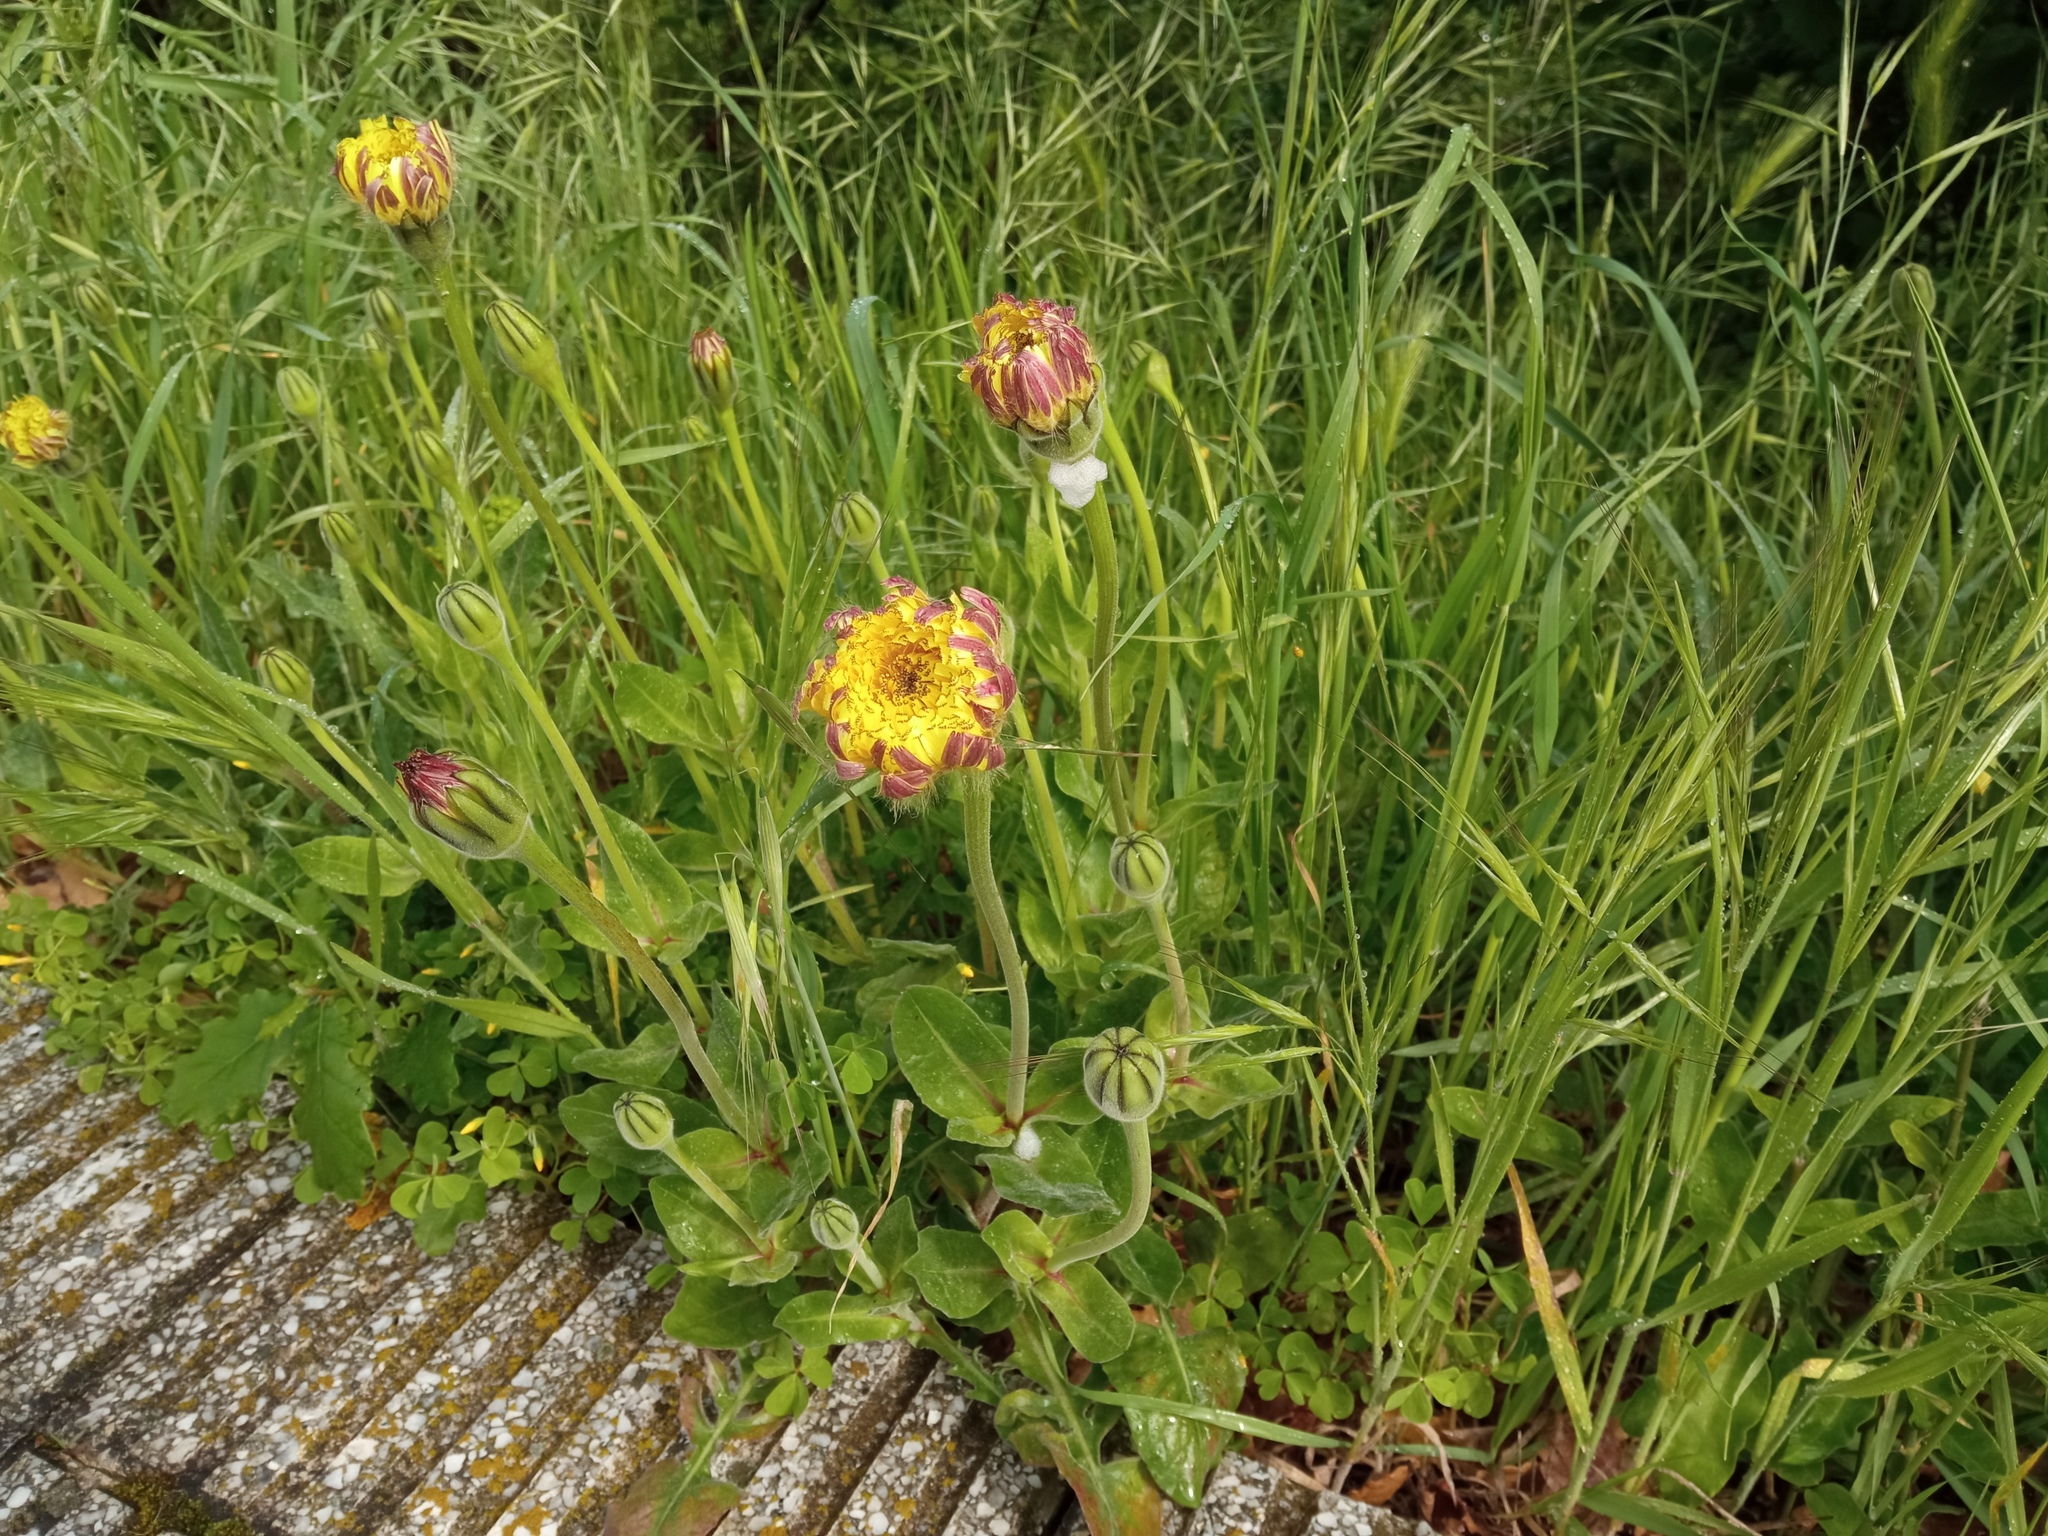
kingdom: Plantae
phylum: Tracheophyta
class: Magnoliopsida
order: Asterales
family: Asteraceae
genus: Urospermum
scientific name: Urospermum dalechampii
